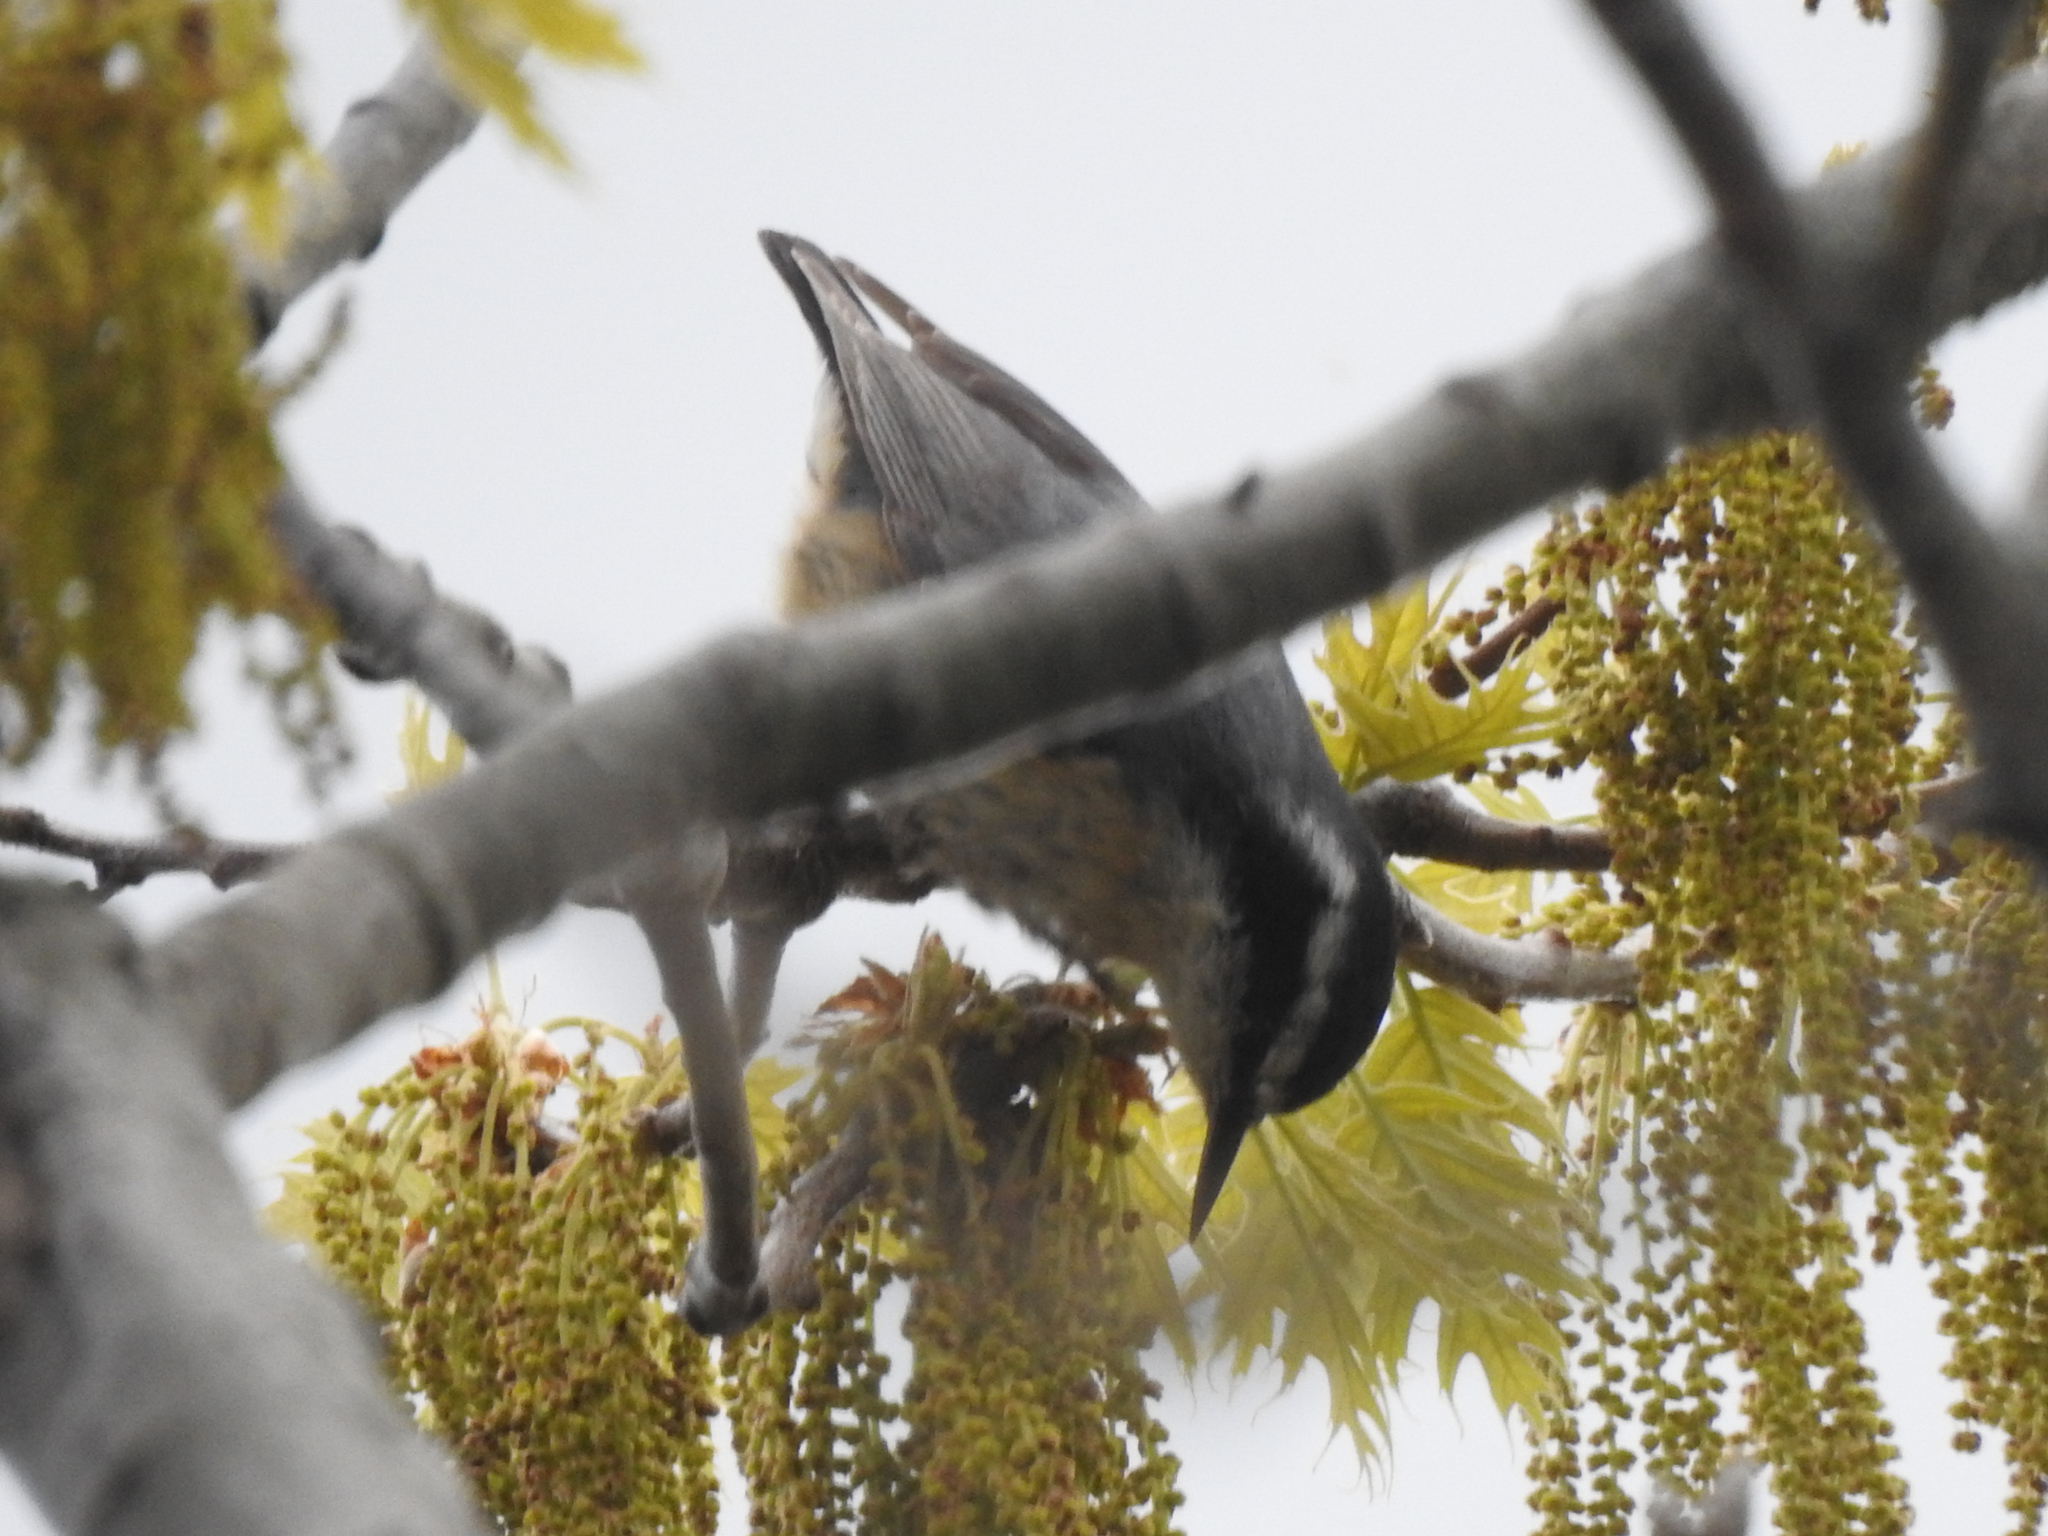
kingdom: Animalia
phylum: Chordata
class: Aves
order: Passeriformes
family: Sittidae
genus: Sitta
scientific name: Sitta canadensis
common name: Red-breasted nuthatch
